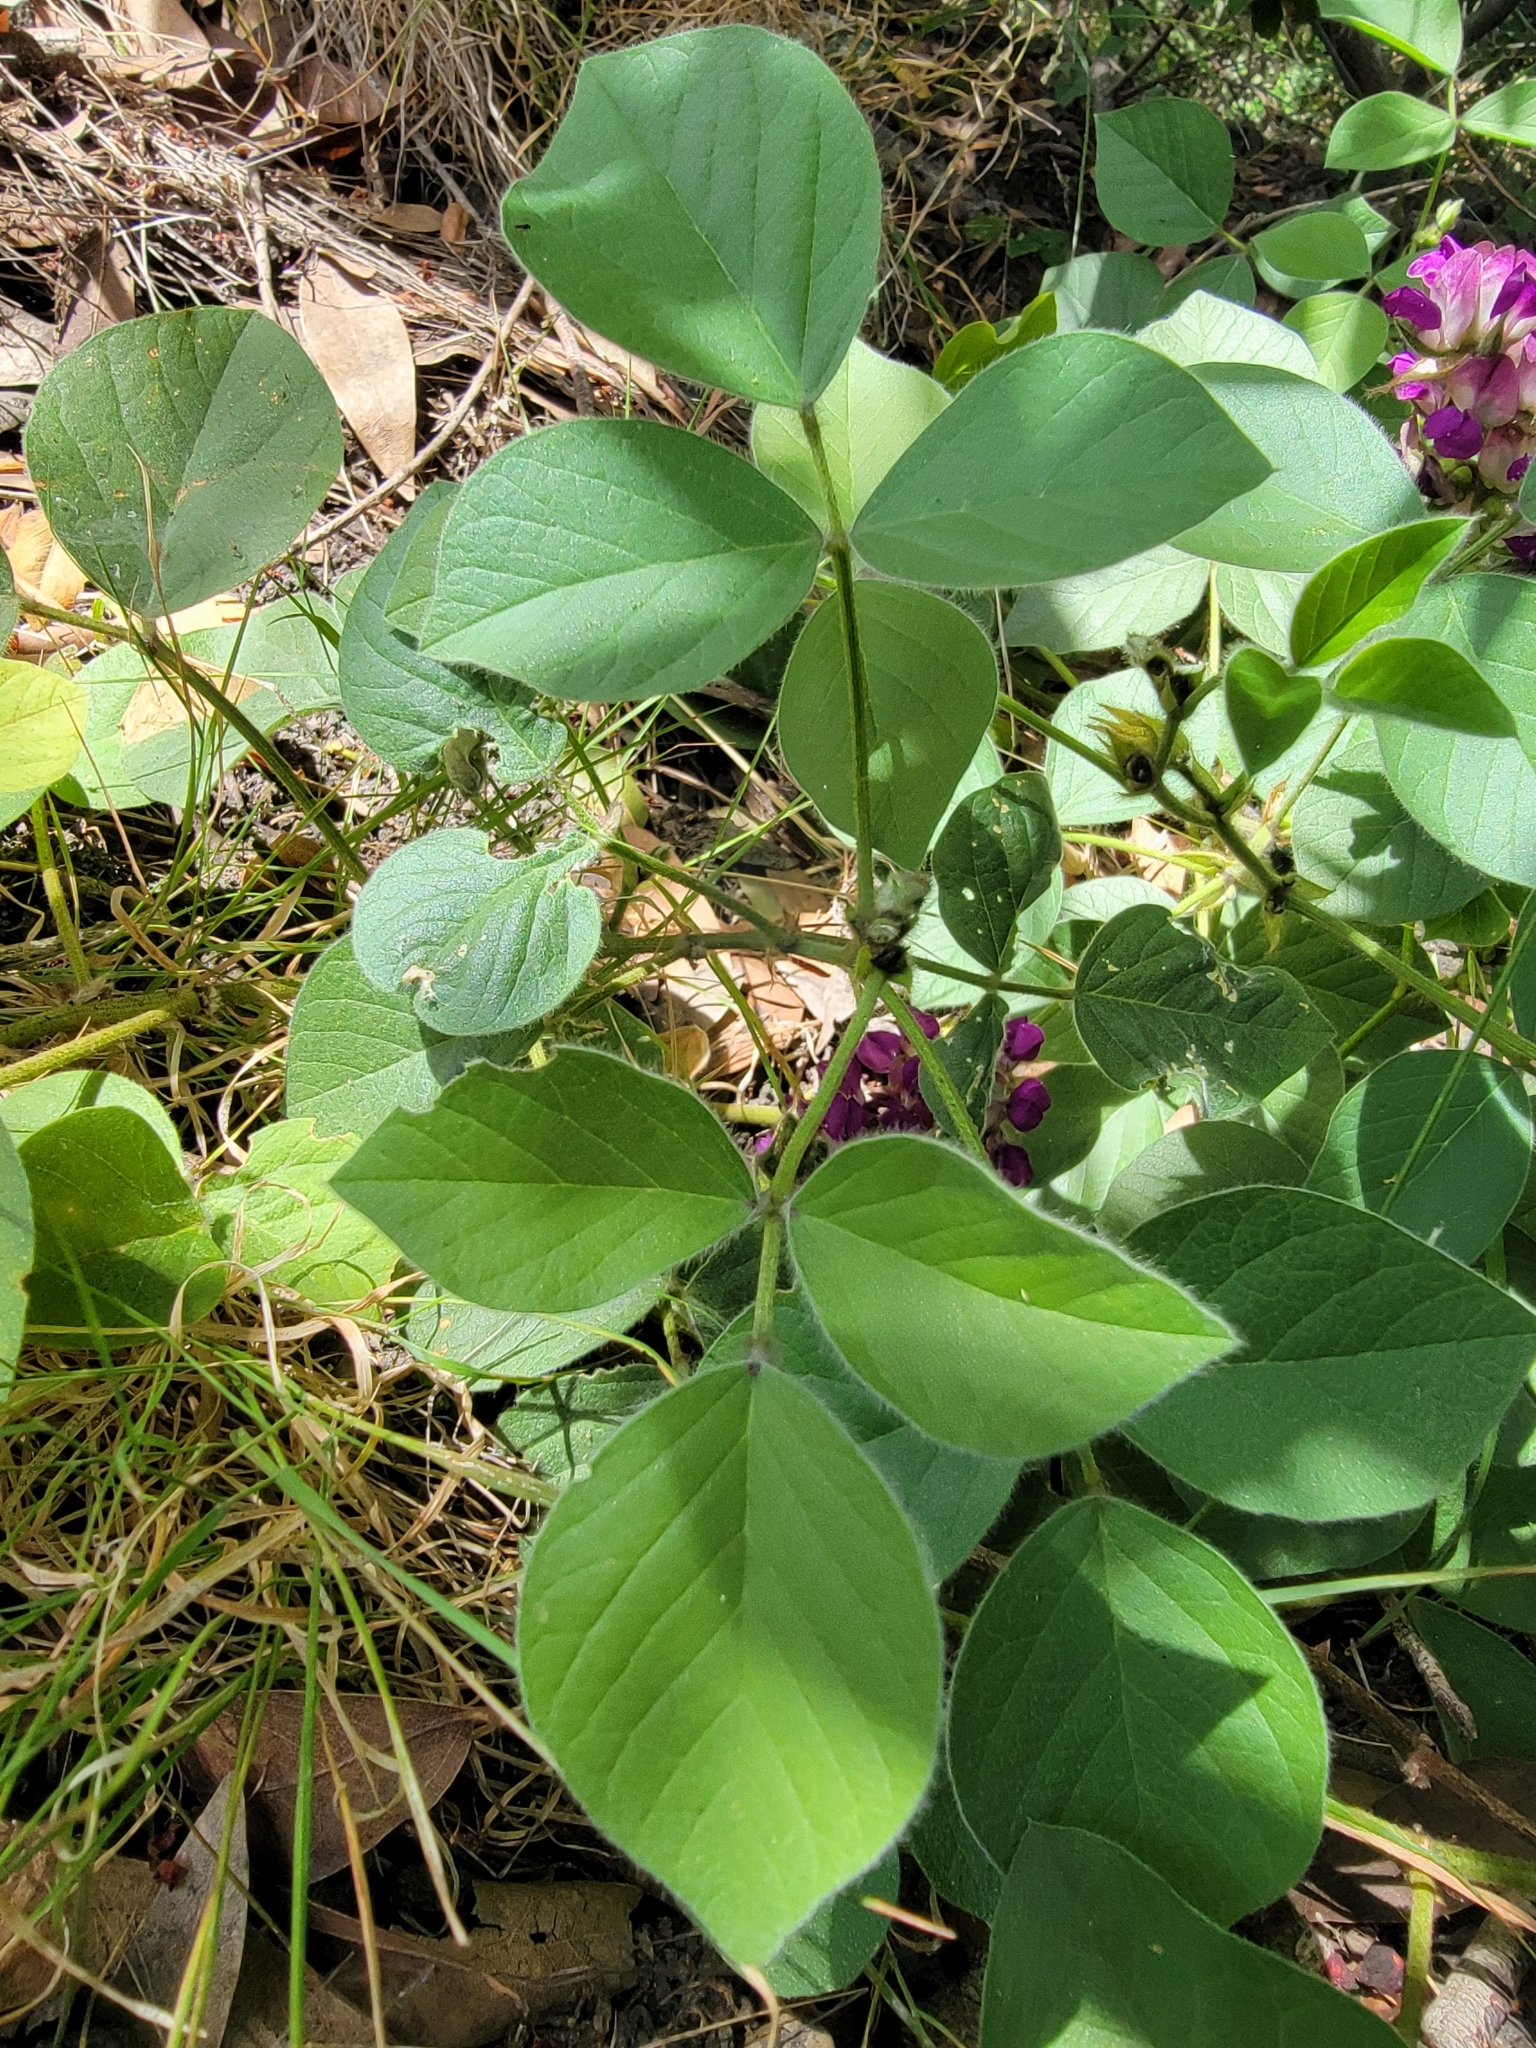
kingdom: Plantae
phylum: Tracheophyta
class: Magnoliopsida
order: Fabales
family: Fabaceae
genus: Hoita
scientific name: Hoita strobilina
